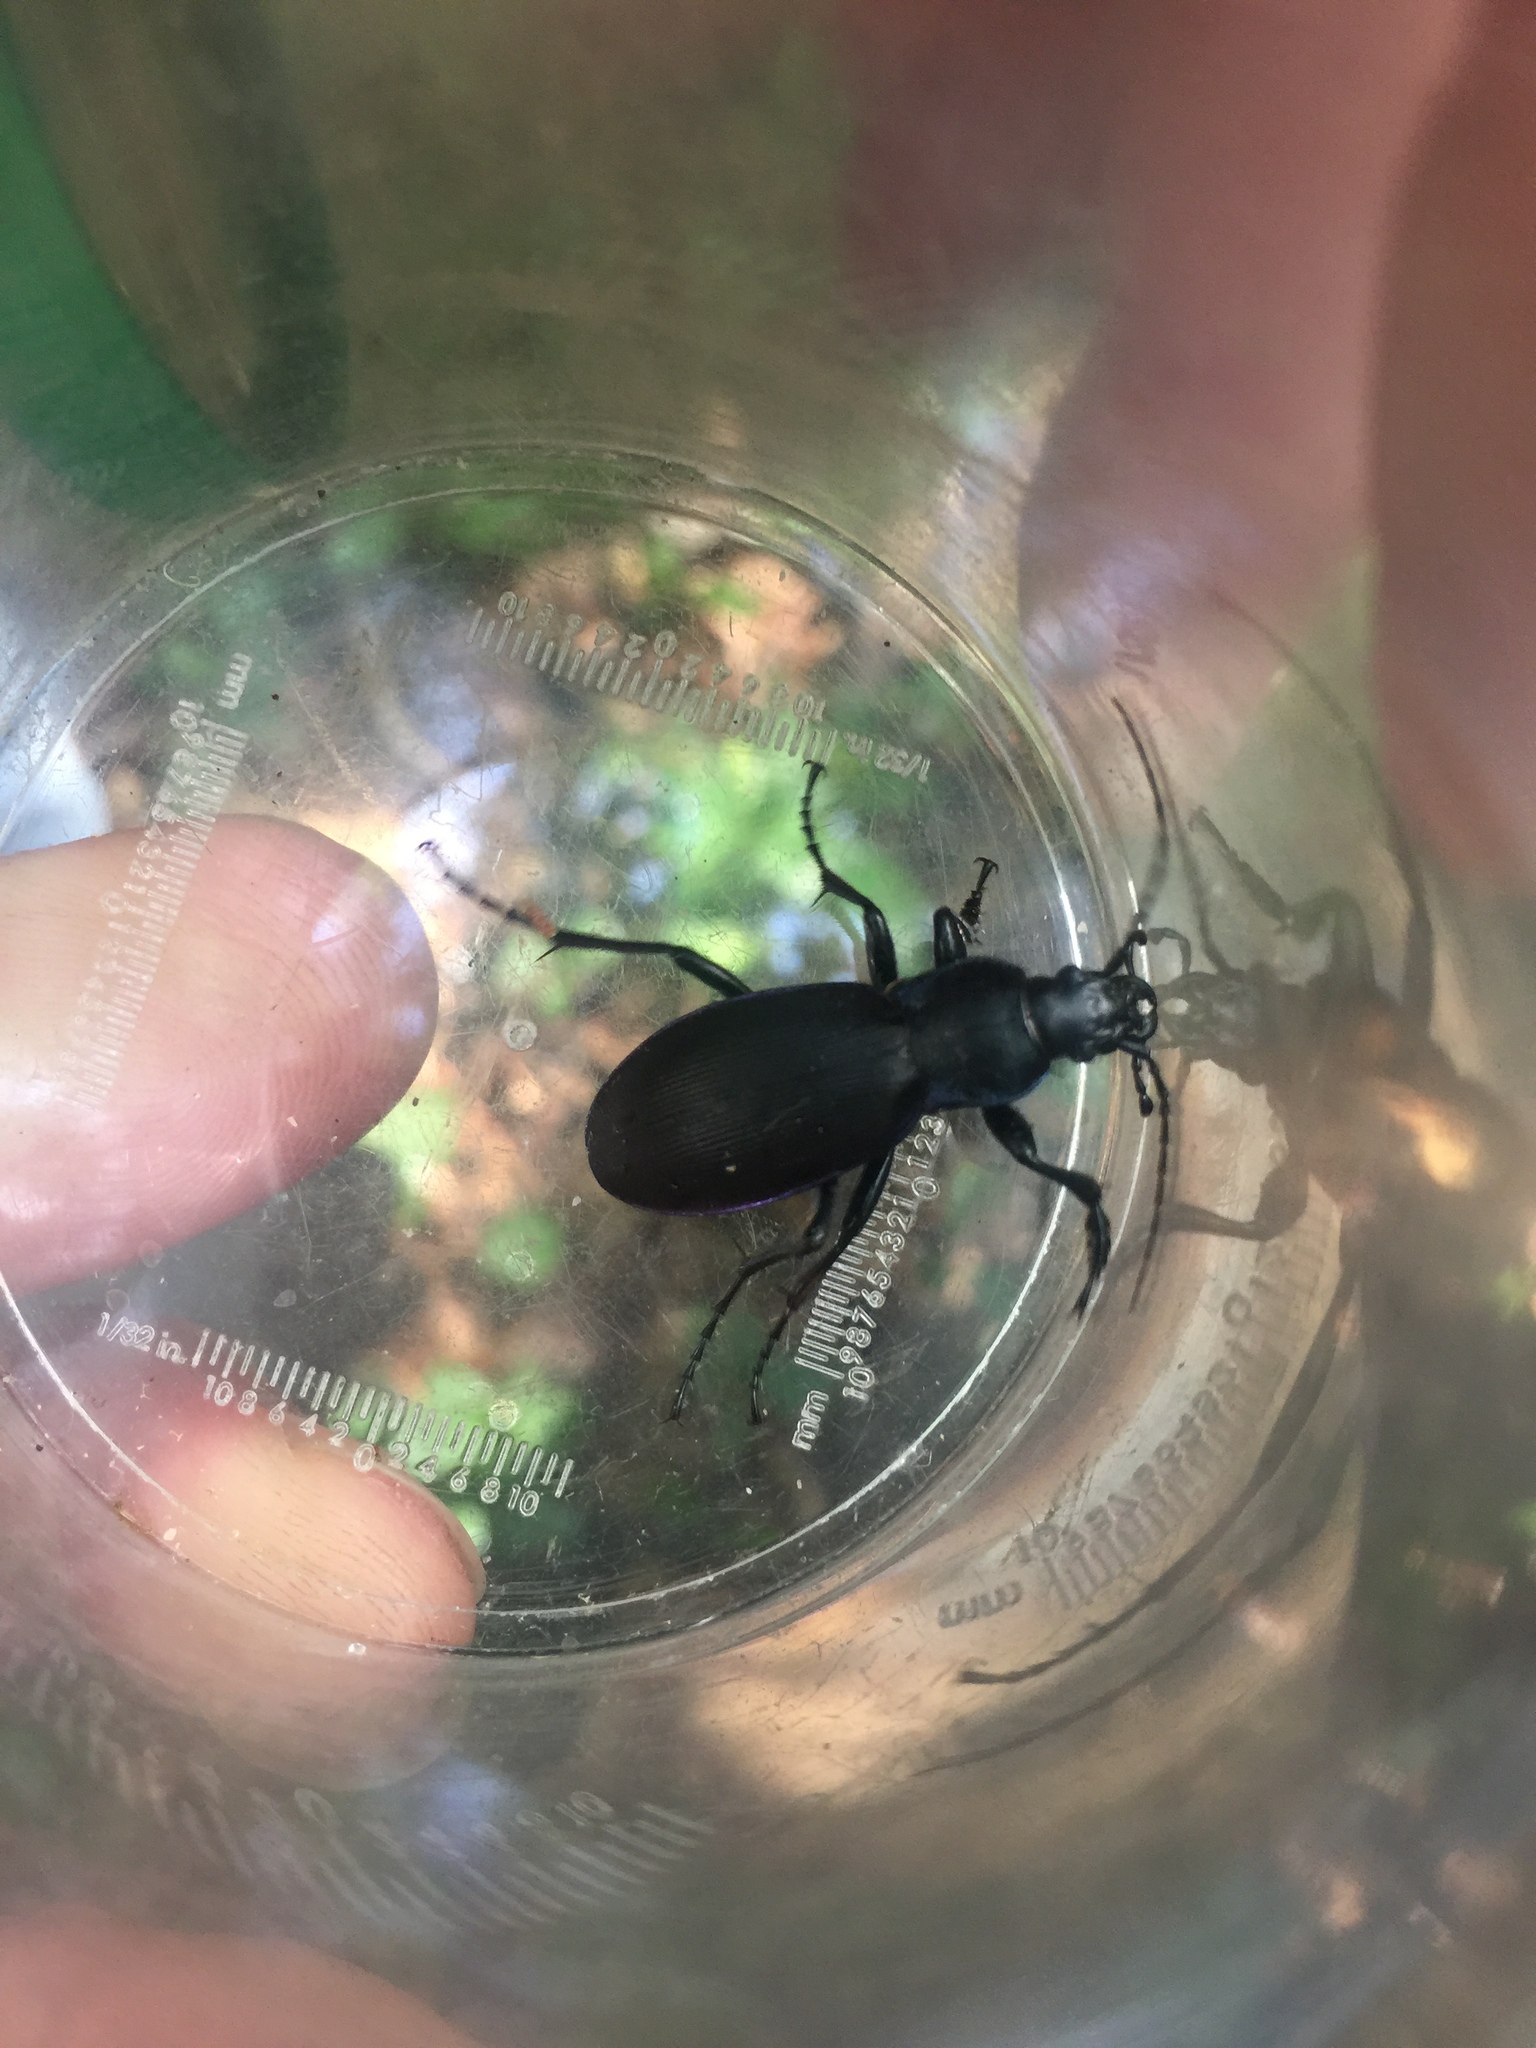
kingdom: Animalia
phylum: Arthropoda
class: Insecta
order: Coleoptera
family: Carabidae
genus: Carabus
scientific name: Carabus purpurascens
